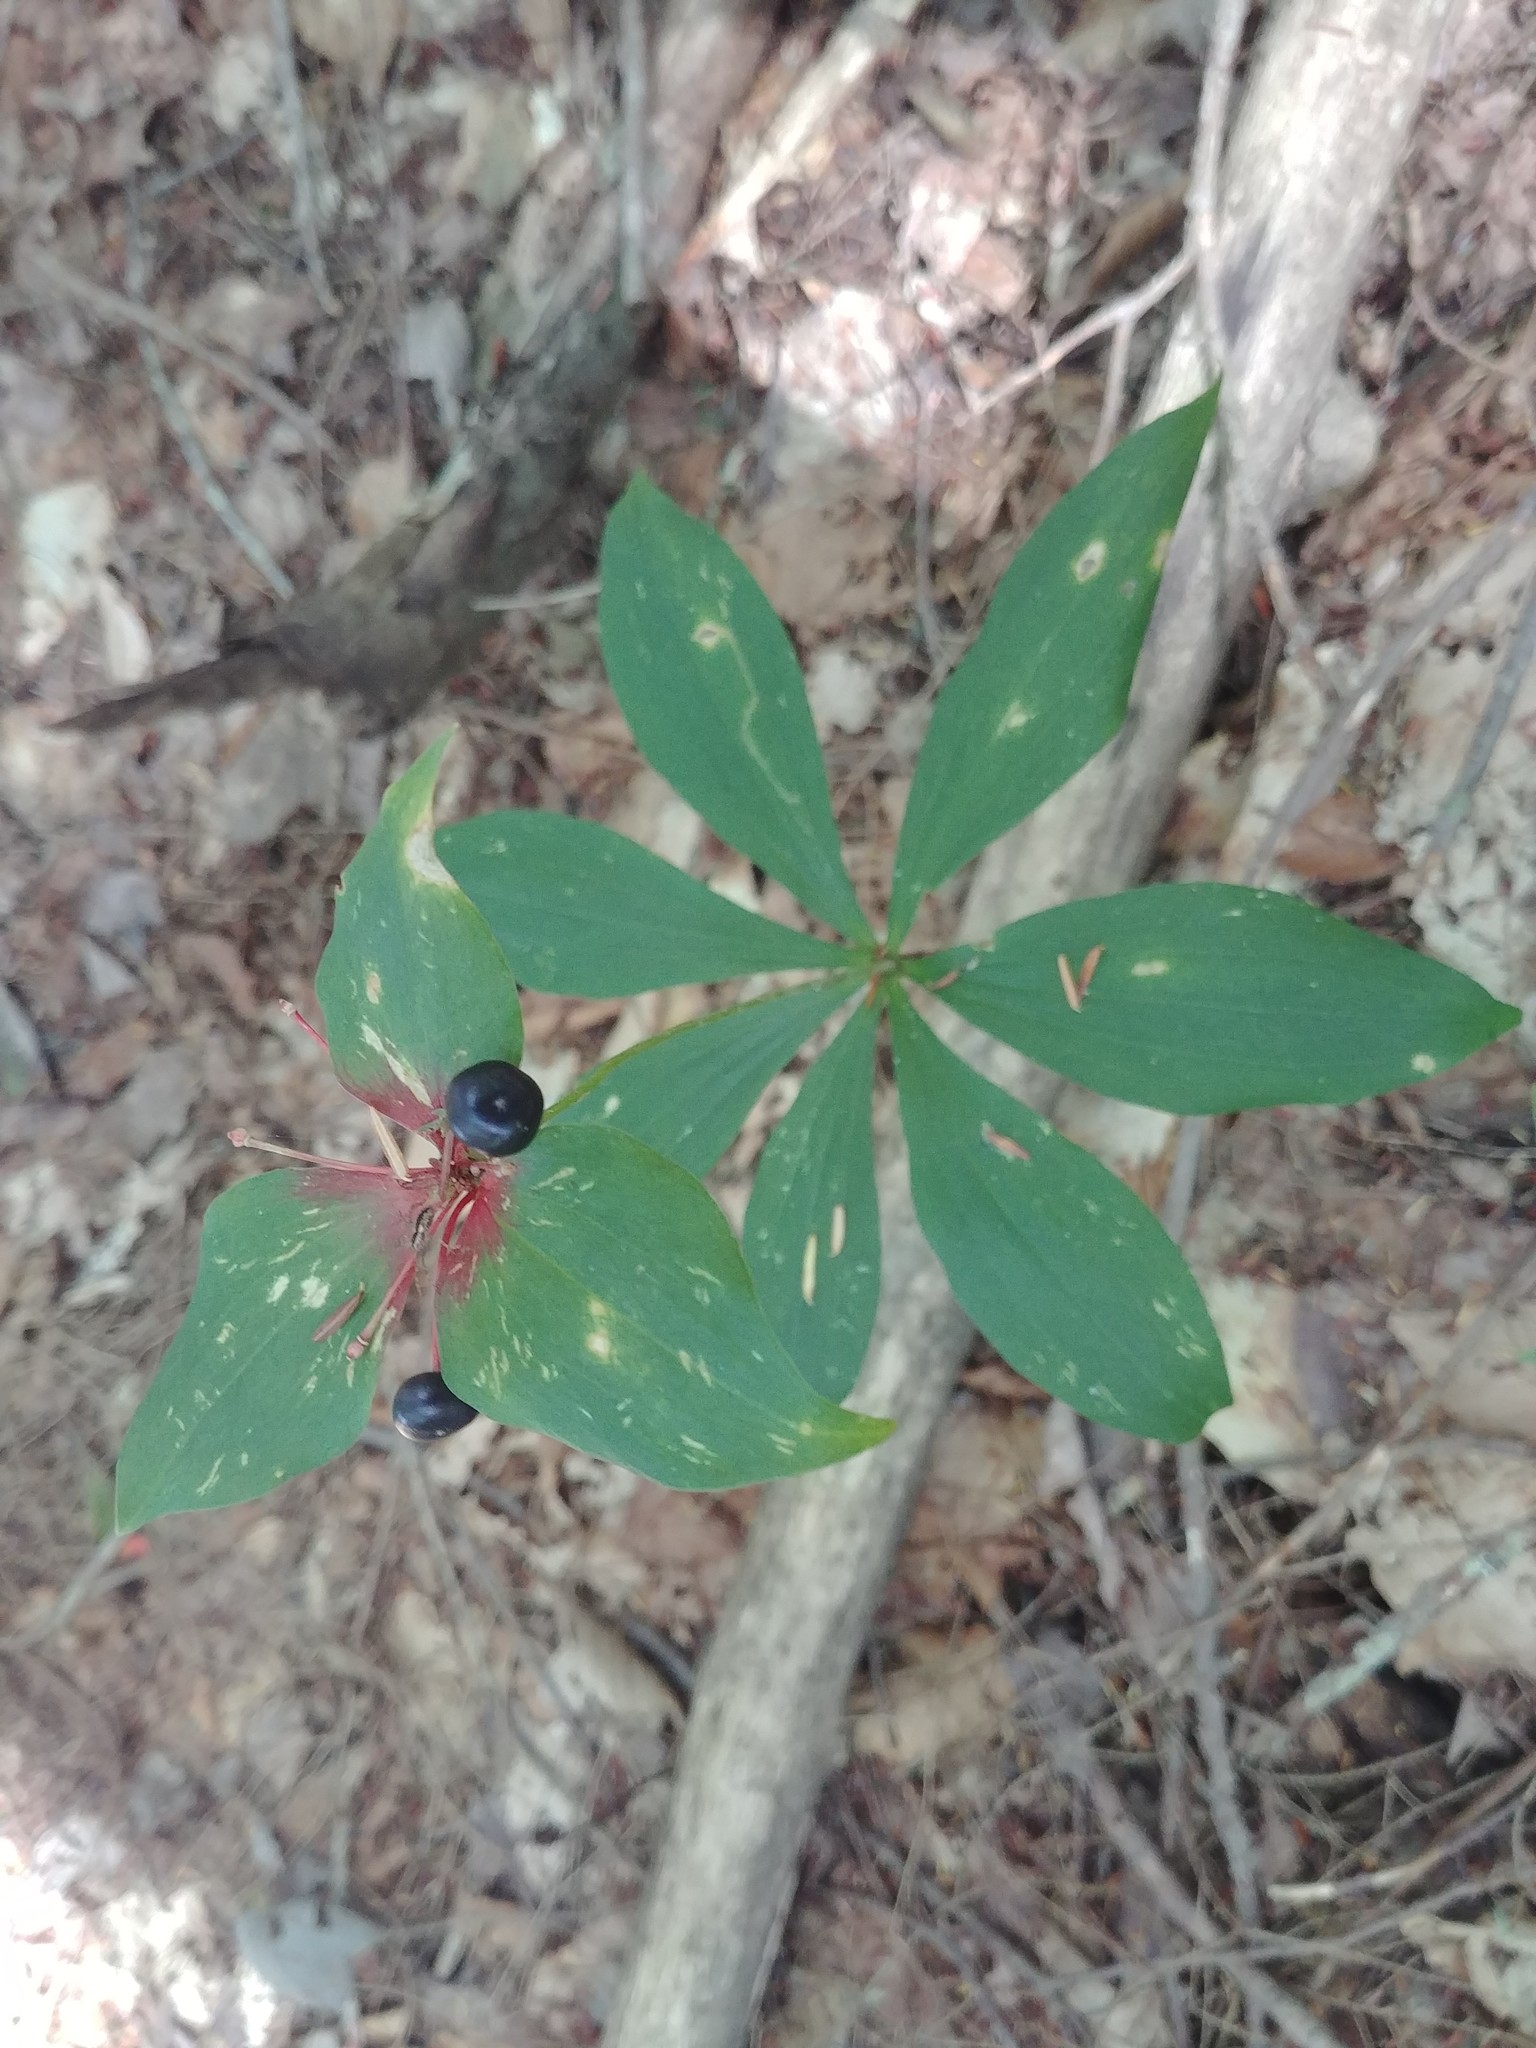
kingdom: Plantae
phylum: Tracheophyta
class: Liliopsida
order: Liliales
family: Liliaceae
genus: Medeola
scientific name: Medeola virginiana
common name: Indian cucumber-root
